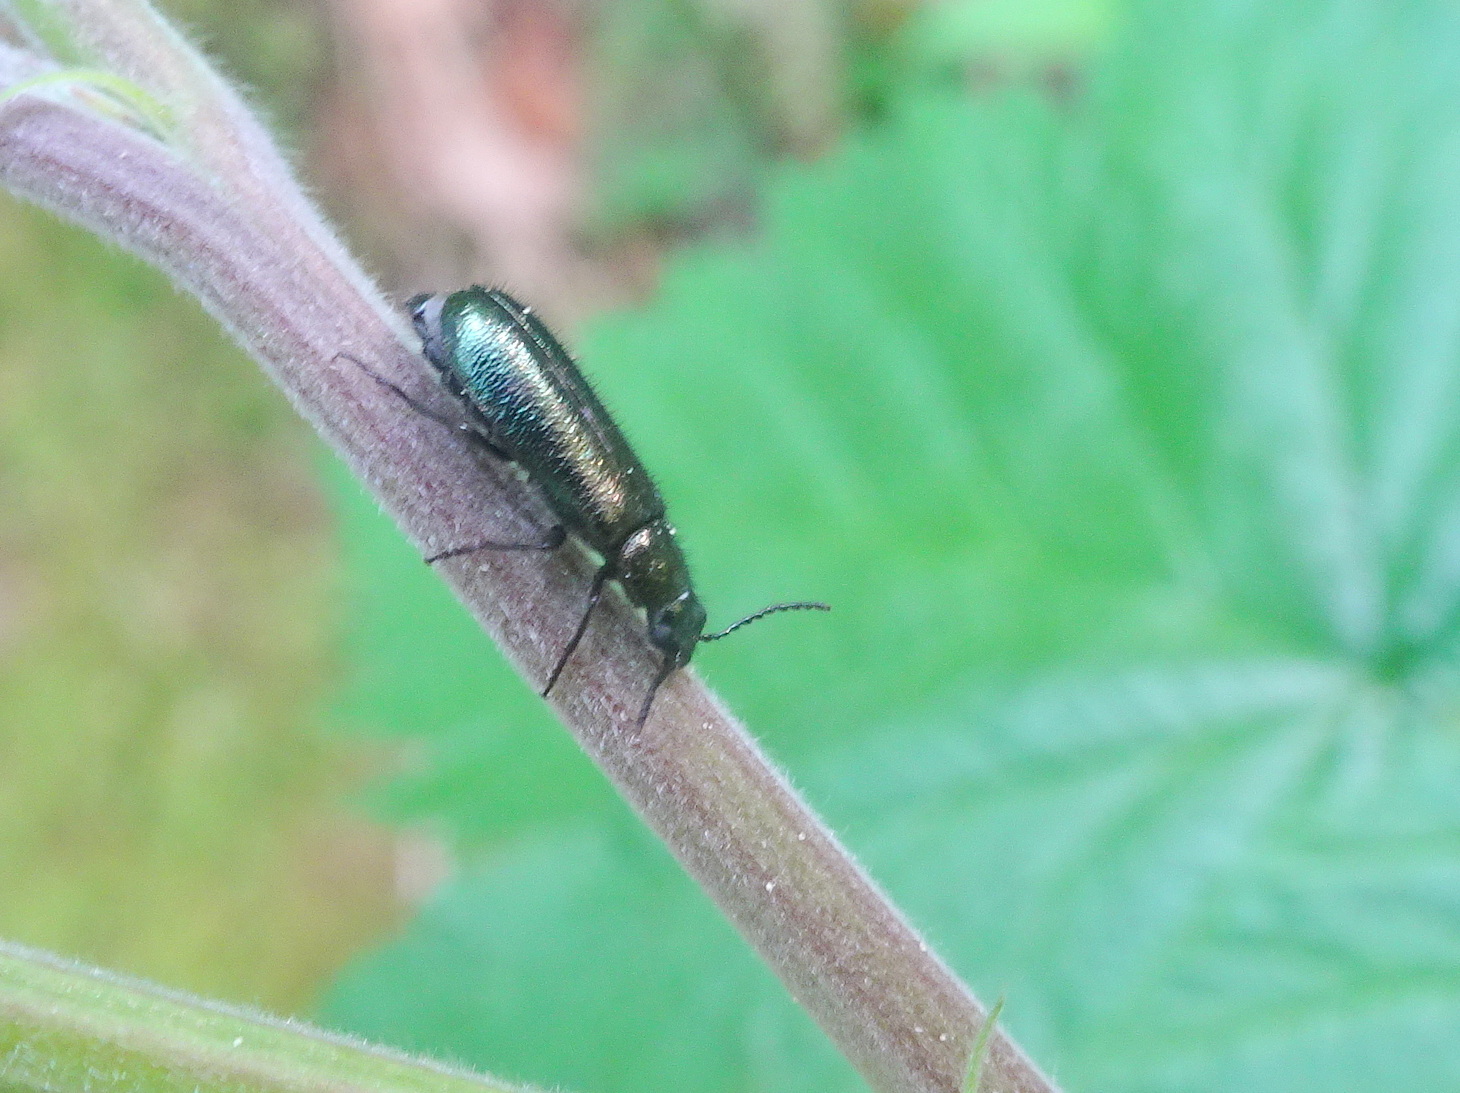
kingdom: Animalia
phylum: Arthropoda
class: Insecta
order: Coleoptera
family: Melyridae
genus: Dasytes
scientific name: Dasytes caeruleus
